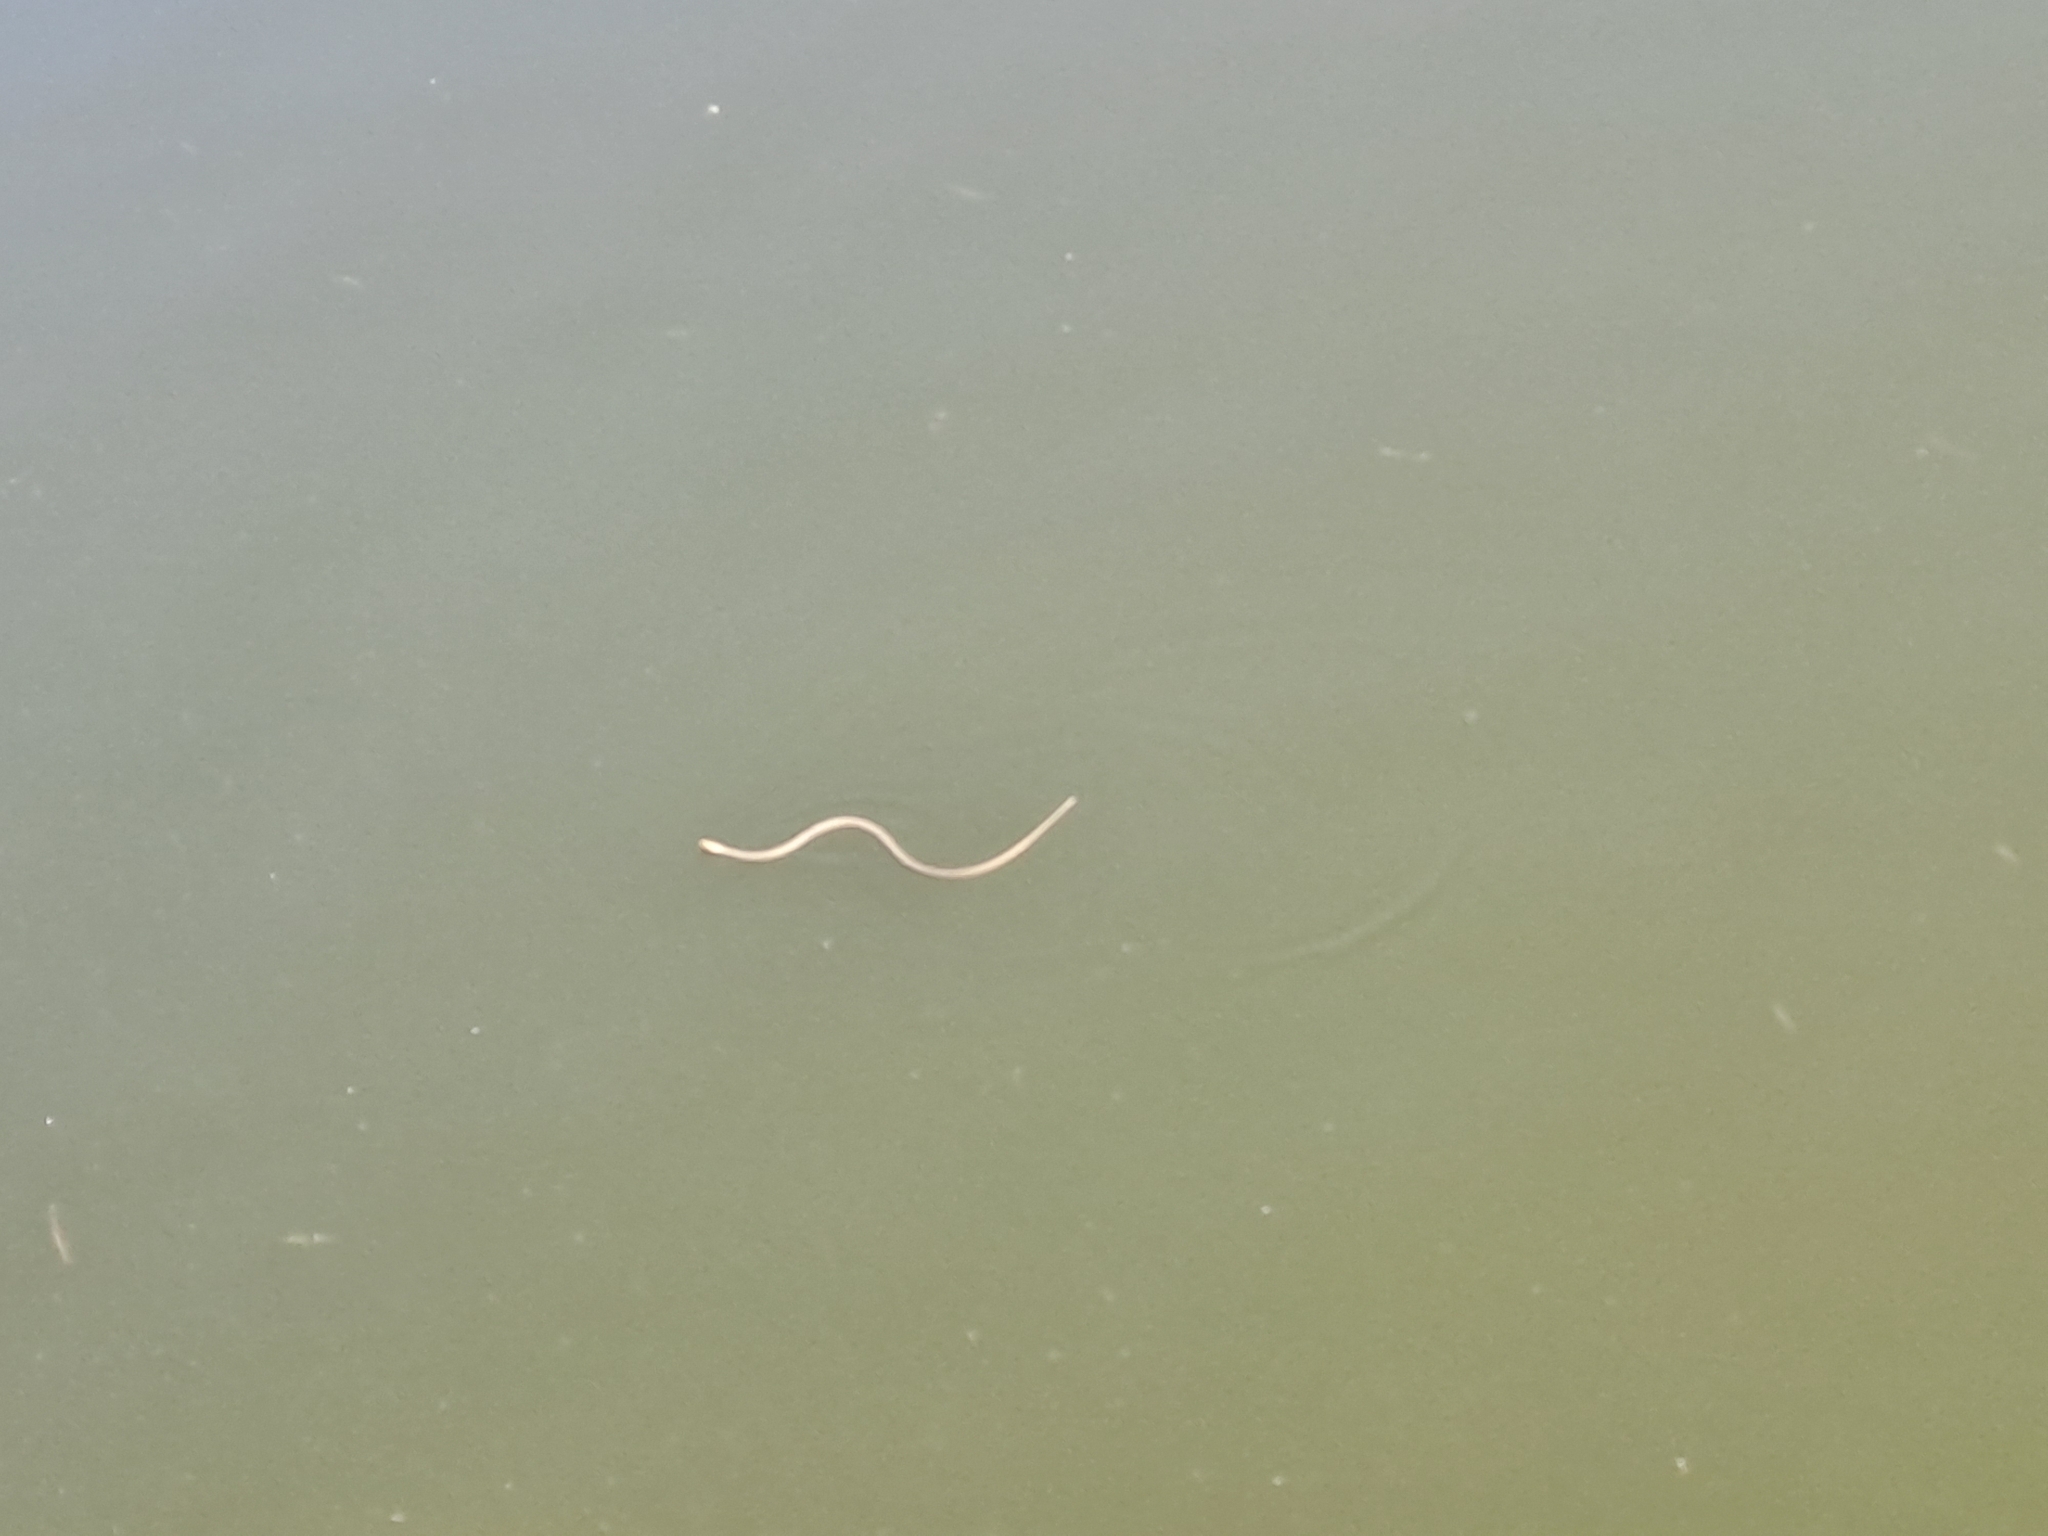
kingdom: Animalia
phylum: Chordata
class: Squamata
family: Colubridae
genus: Natrix
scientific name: Natrix tessellata
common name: Dice snake
